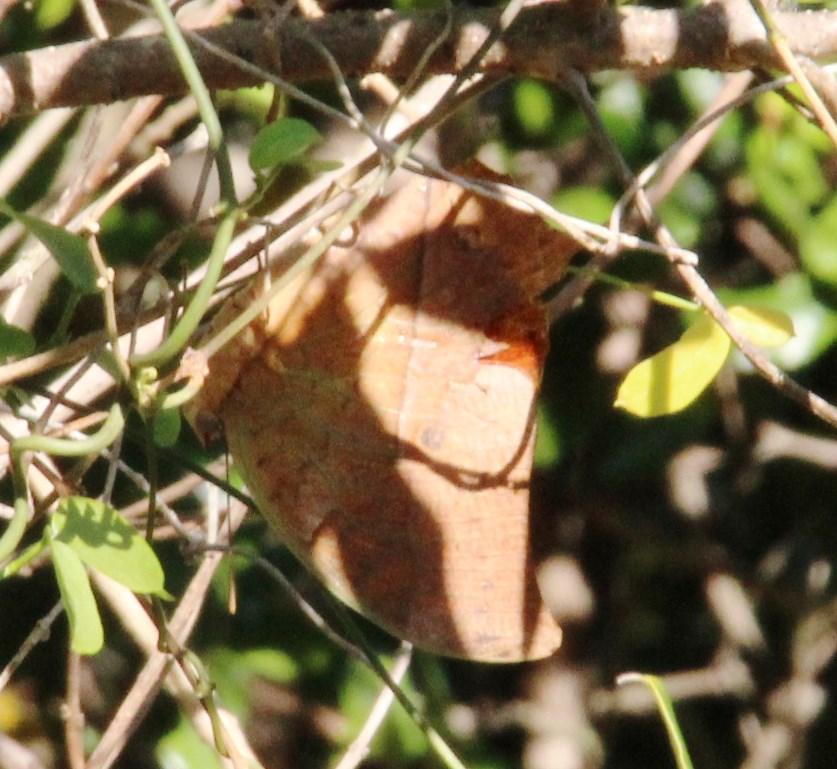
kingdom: Animalia
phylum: Arthropoda
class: Insecta
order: Lepidoptera
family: Nymphalidae
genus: Charaxes
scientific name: Charaxes varanes
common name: Common pearl charaxes
